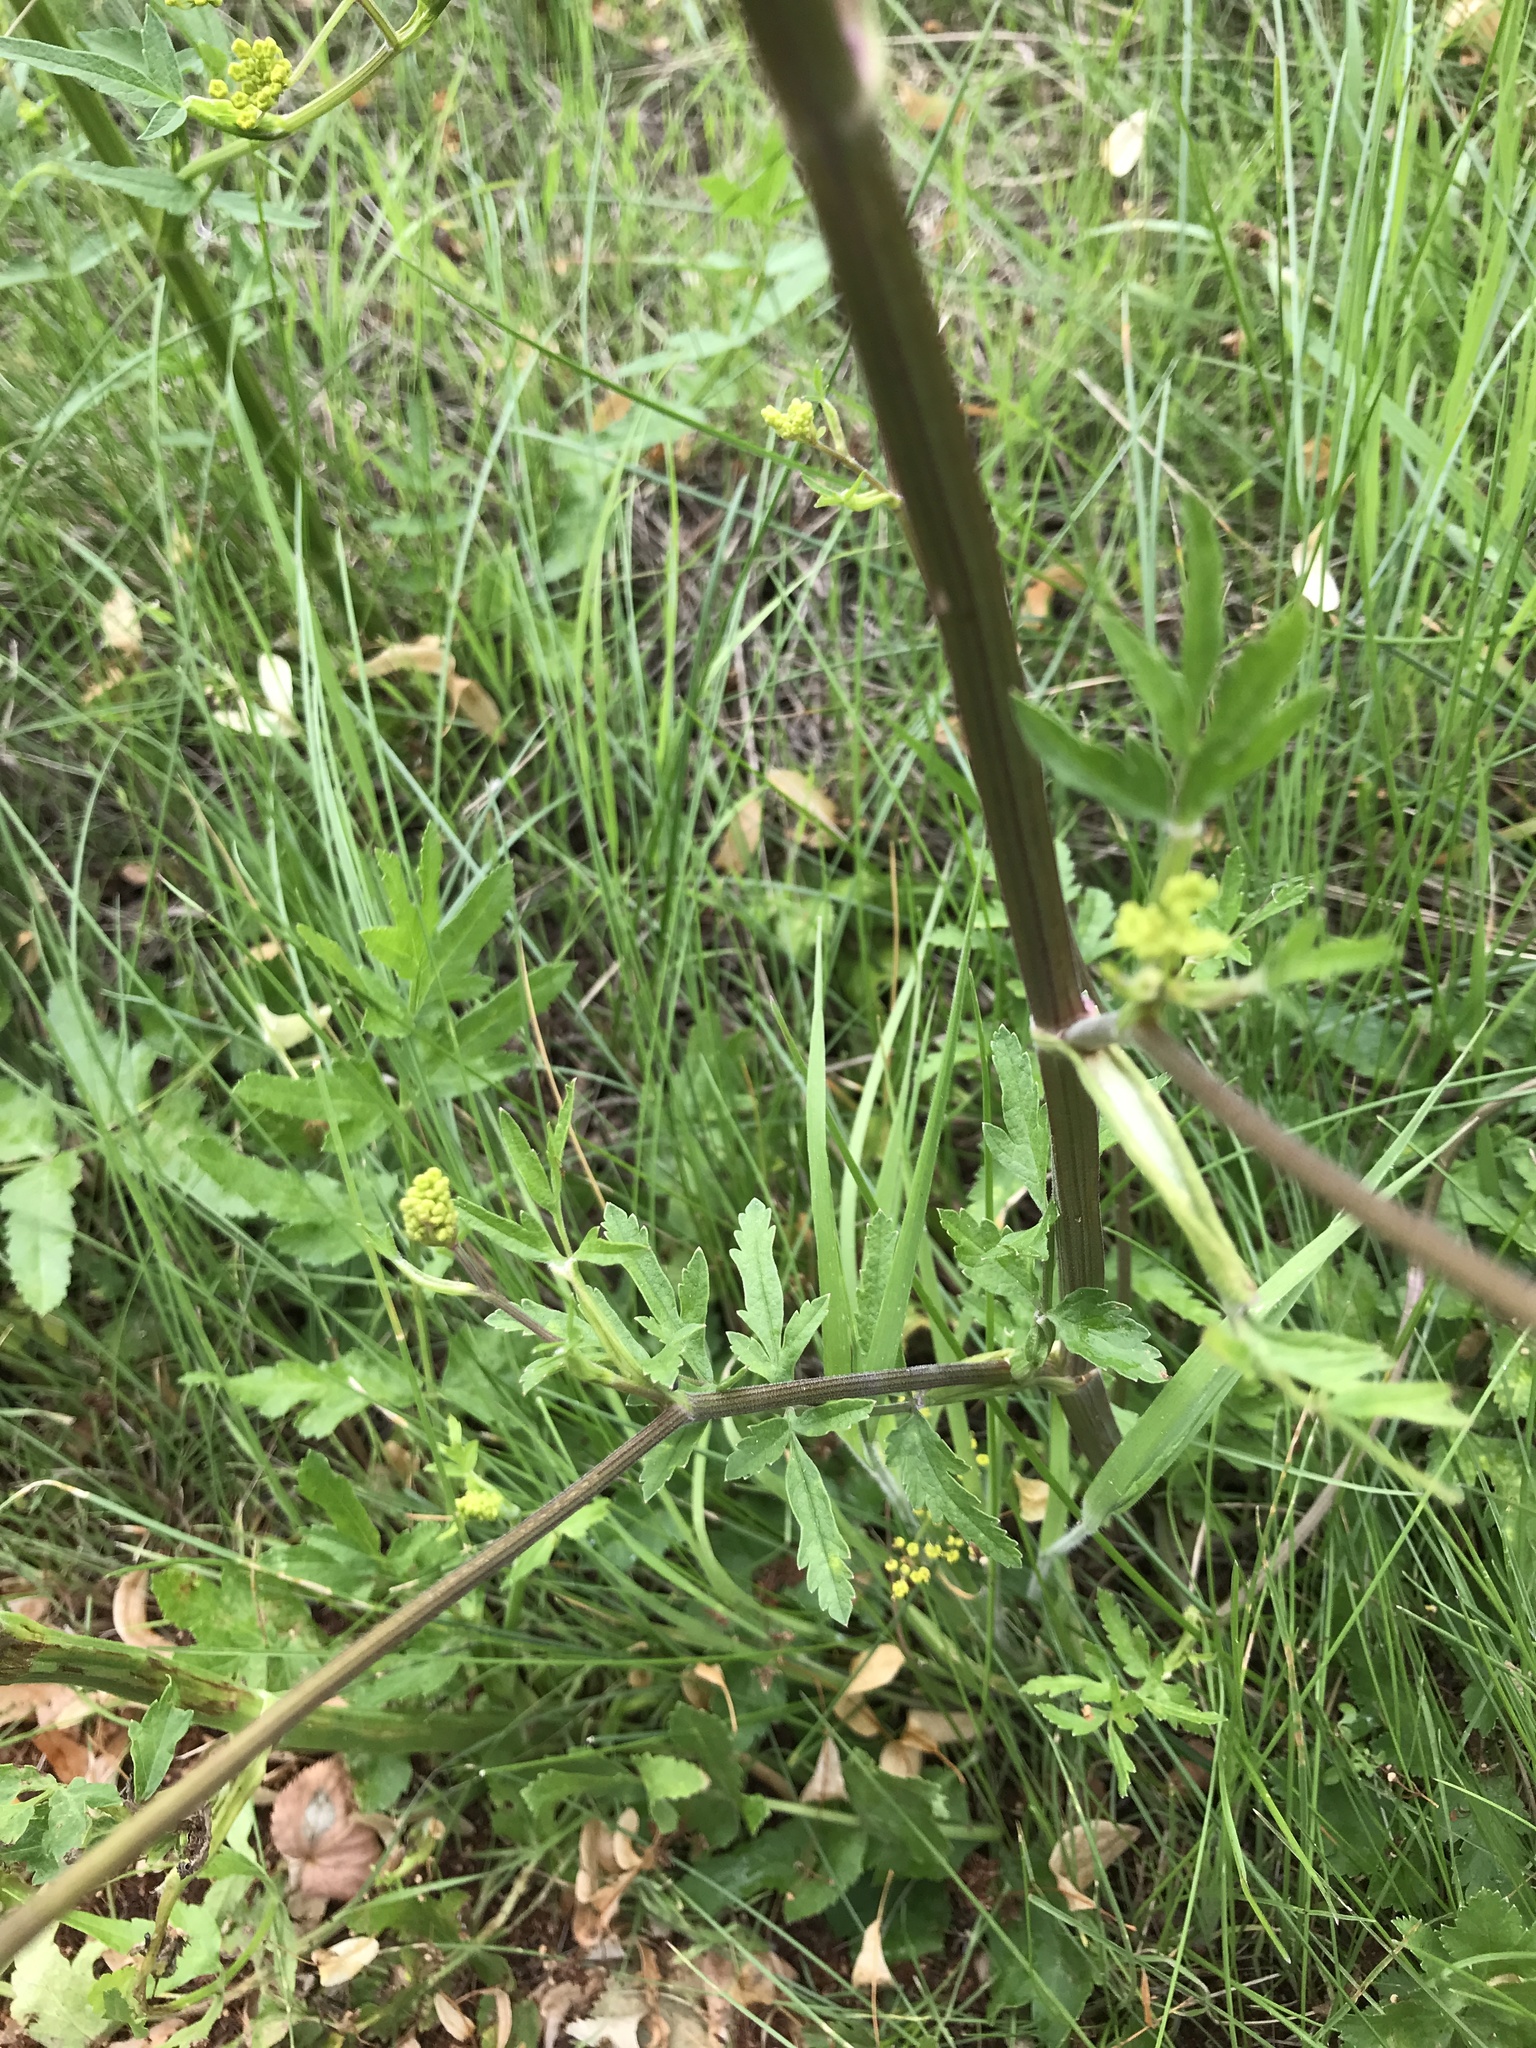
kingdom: Plantae
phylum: Tracheophyta
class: Magnoliopsida
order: Apiales
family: Apiaceae
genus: Pastinaca
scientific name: Pastinaca sativa
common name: Wild parsnip
